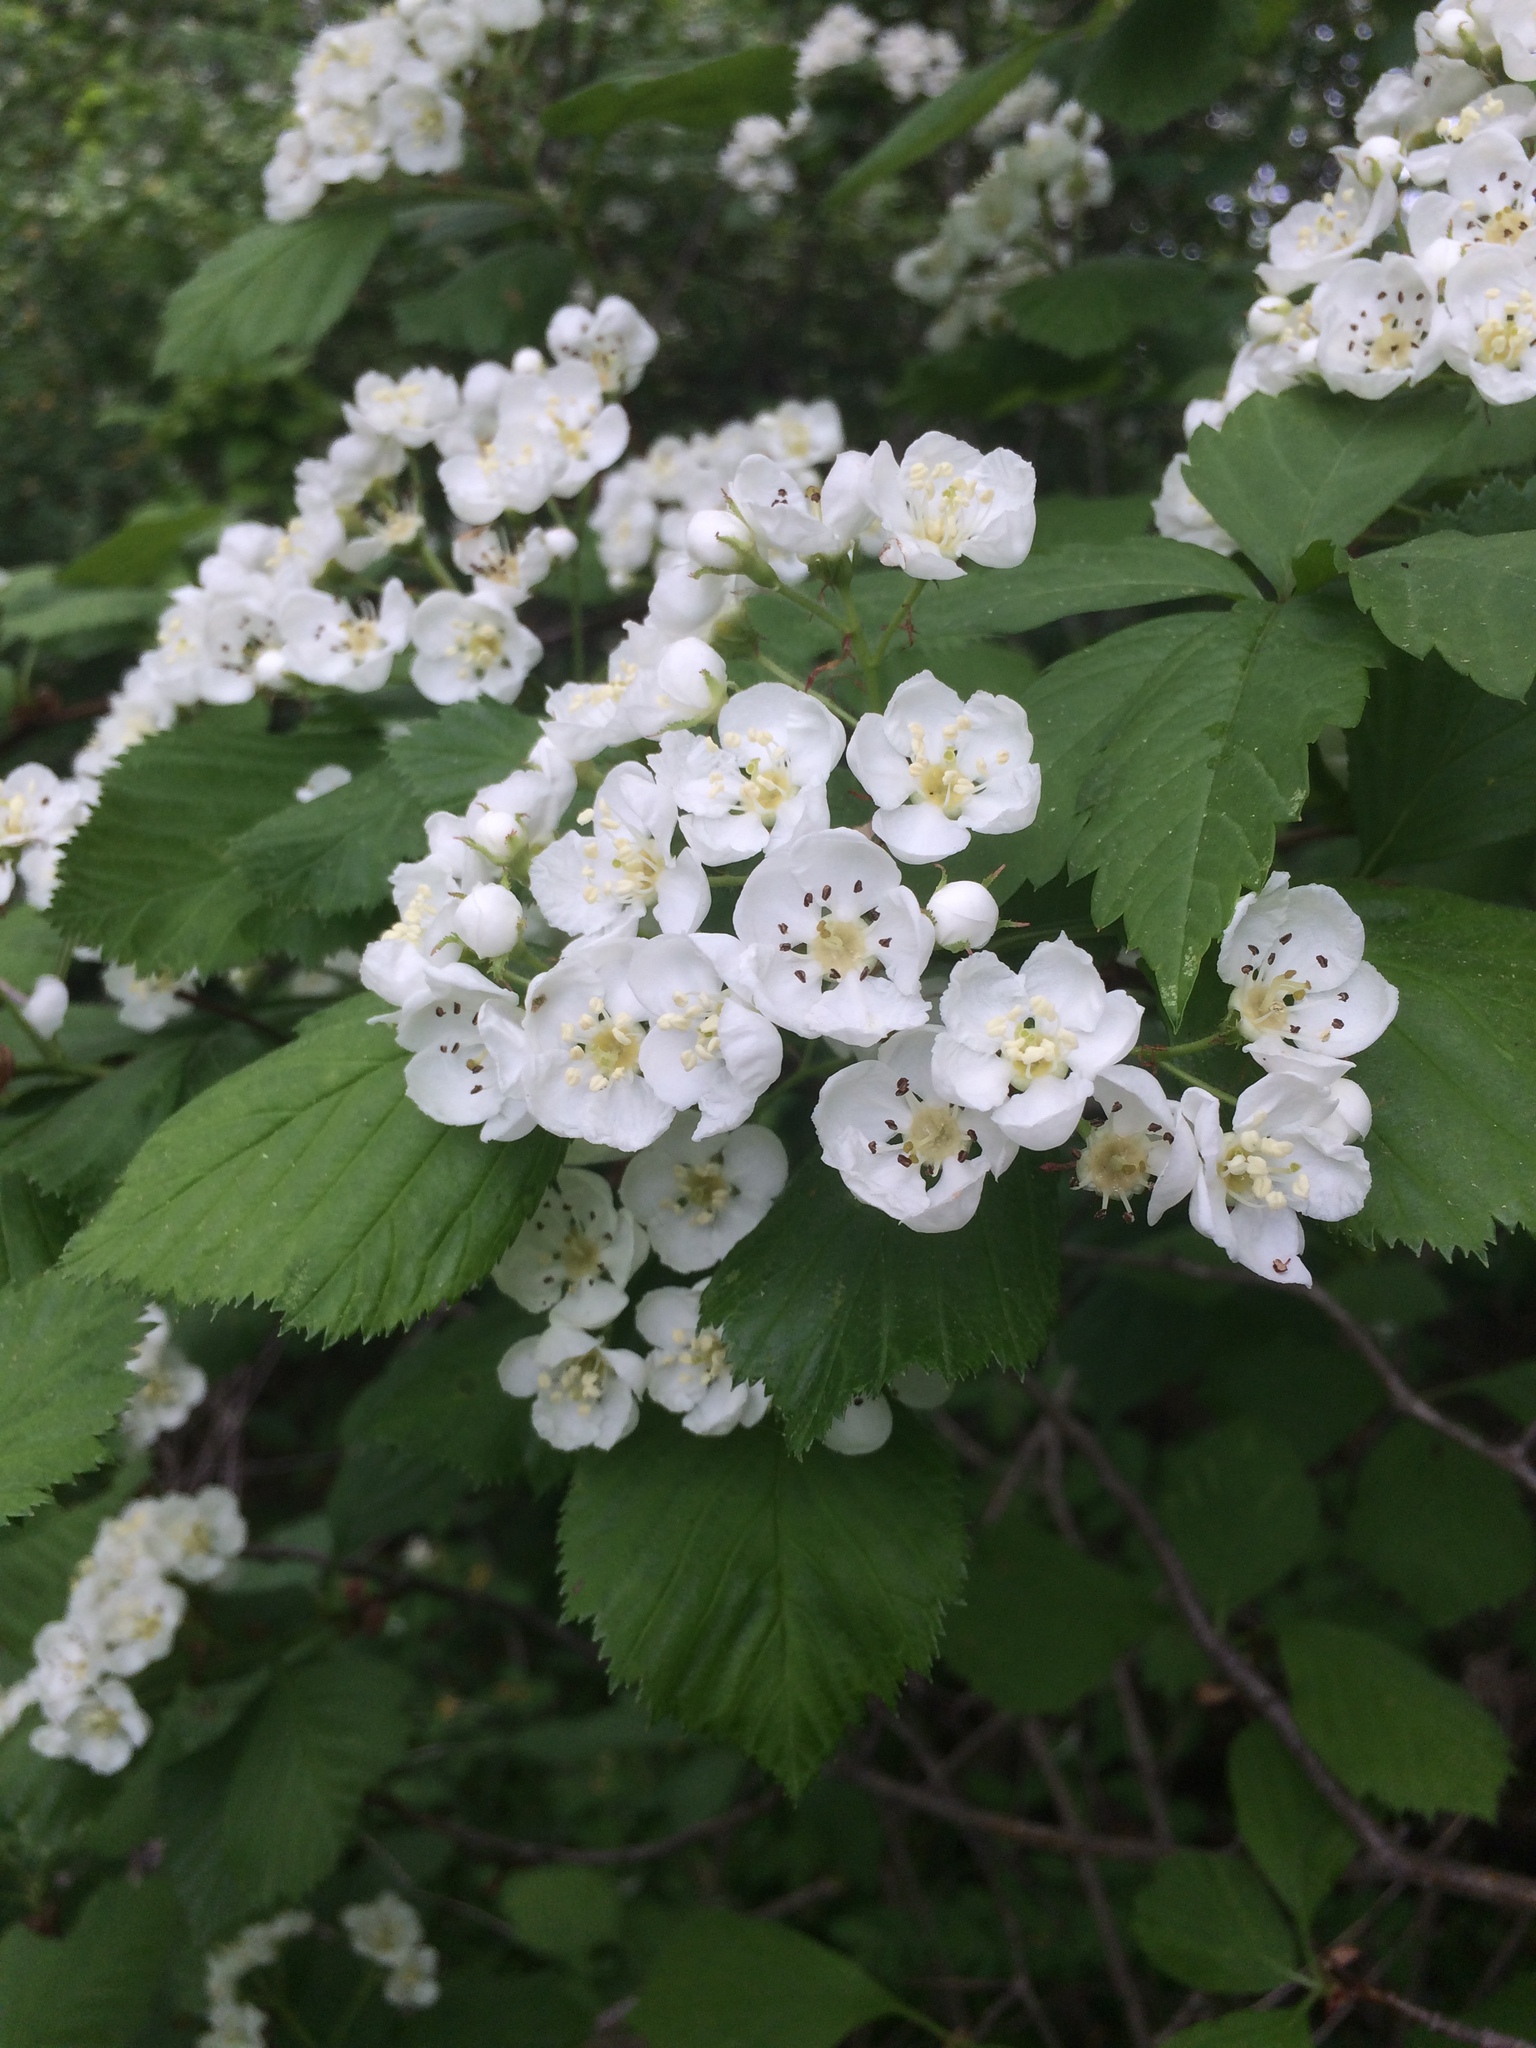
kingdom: Plantae
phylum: Tracheophyta
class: Magnoliopsida
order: Rosales
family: Rosaceae
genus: Crataegus
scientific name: Crataegus macracantha
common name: Large-thorn hawthorn
